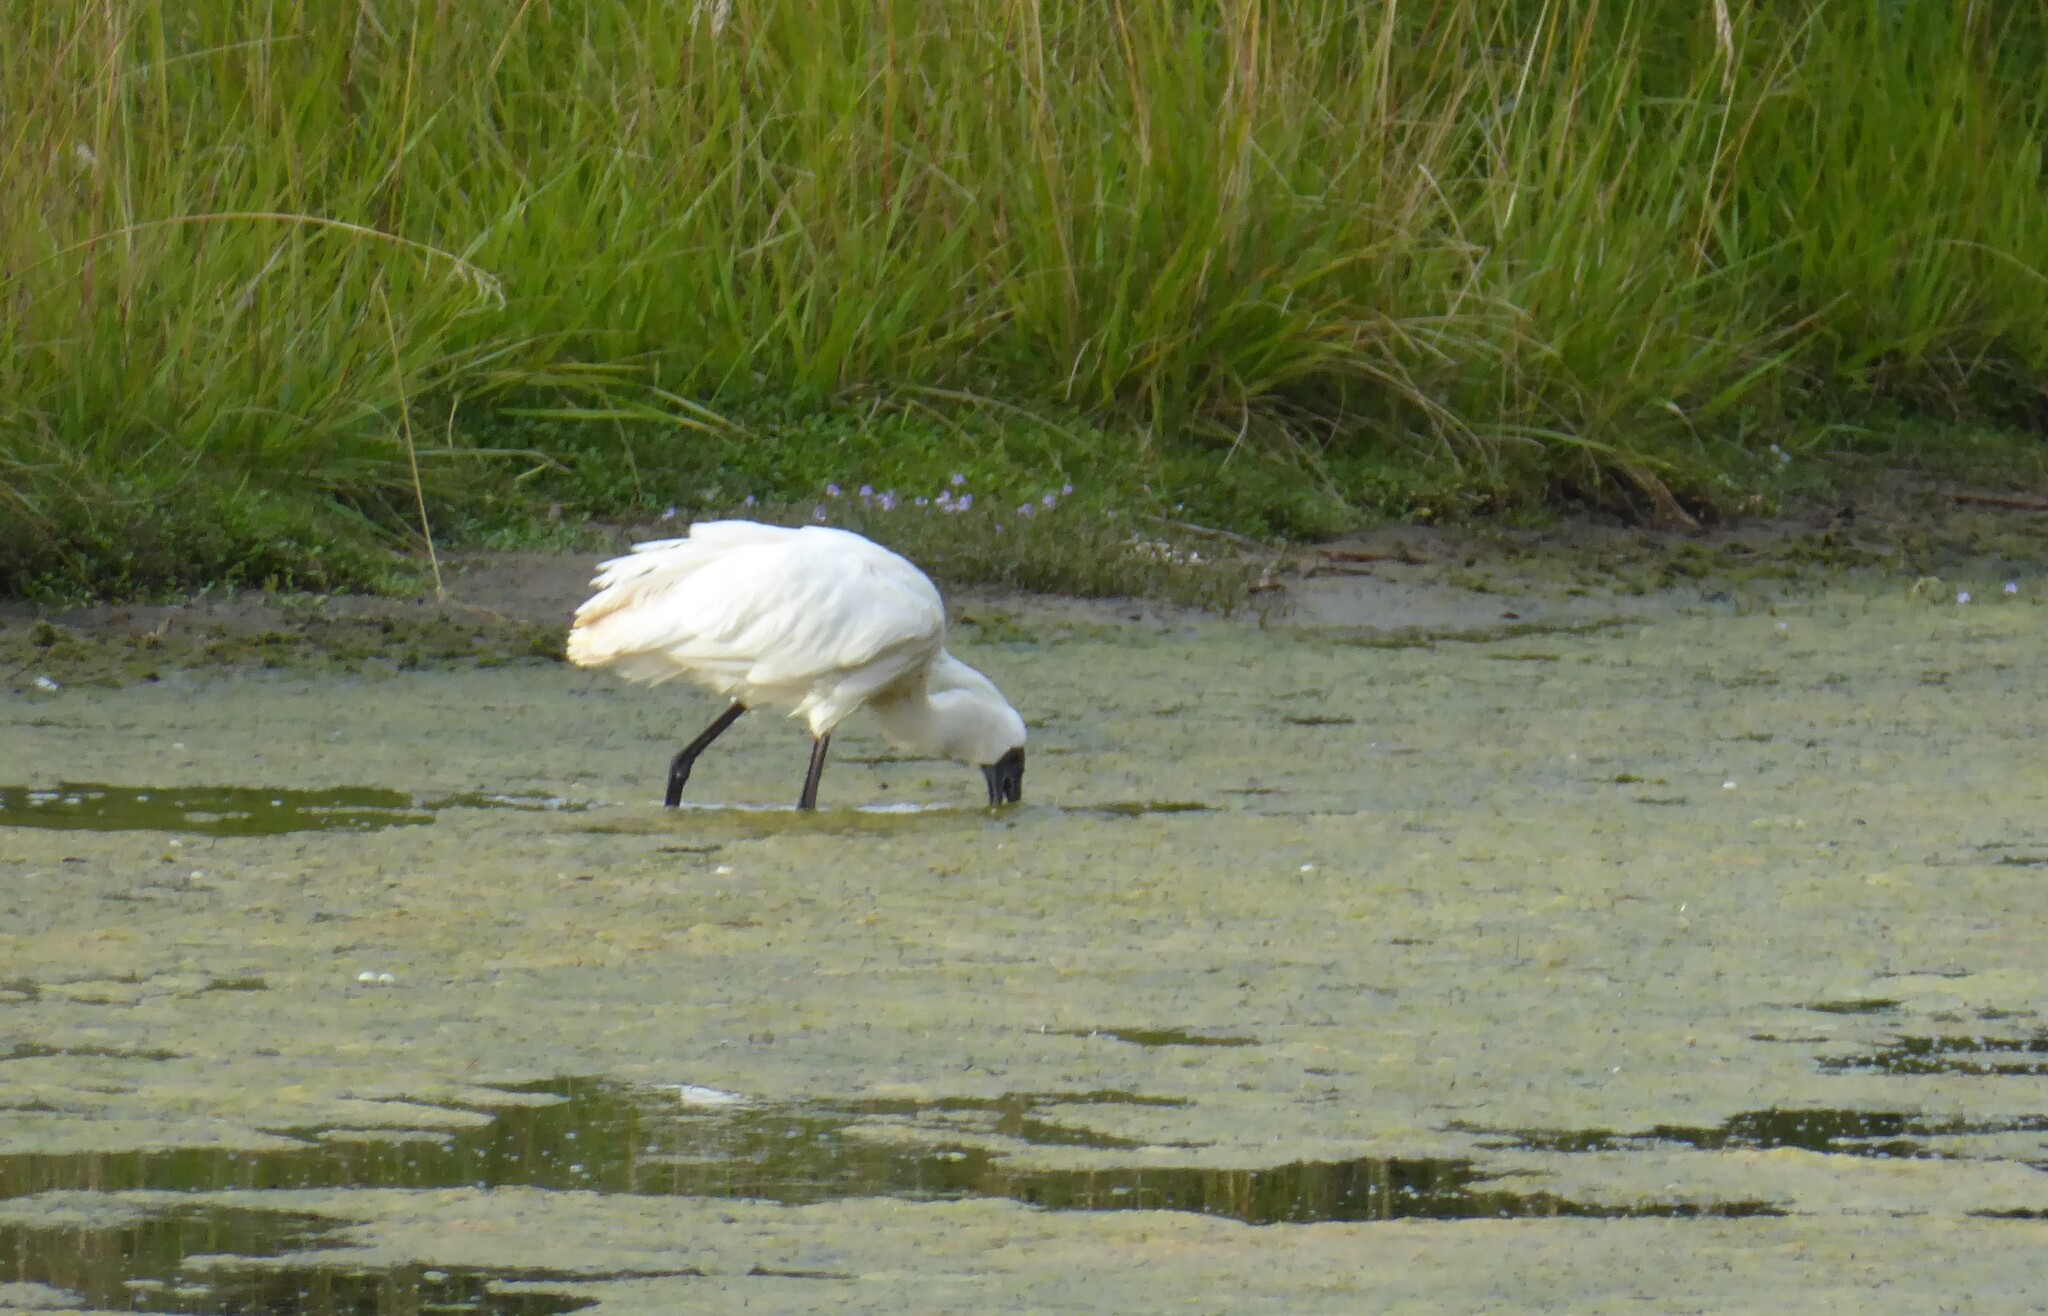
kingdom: Animalia
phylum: Chordata
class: Aves
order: Pelecaniformes
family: Threskiornithidae
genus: Platalea
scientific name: Platalea regia
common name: Royal spoonbill
